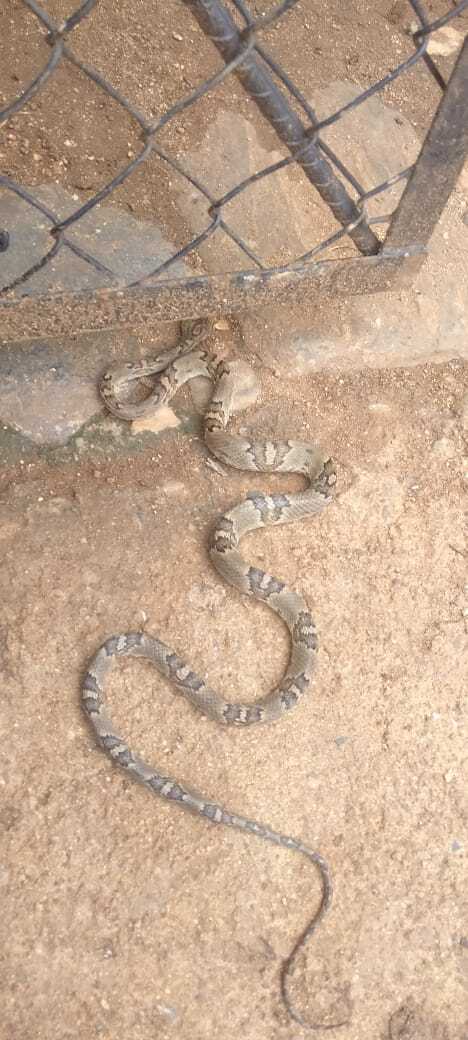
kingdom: Animalia
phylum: Chordata
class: Squamata
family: Colubridae
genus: Trimorphodon
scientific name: Trimorphodon biscutatus
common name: Costal lyre snake
